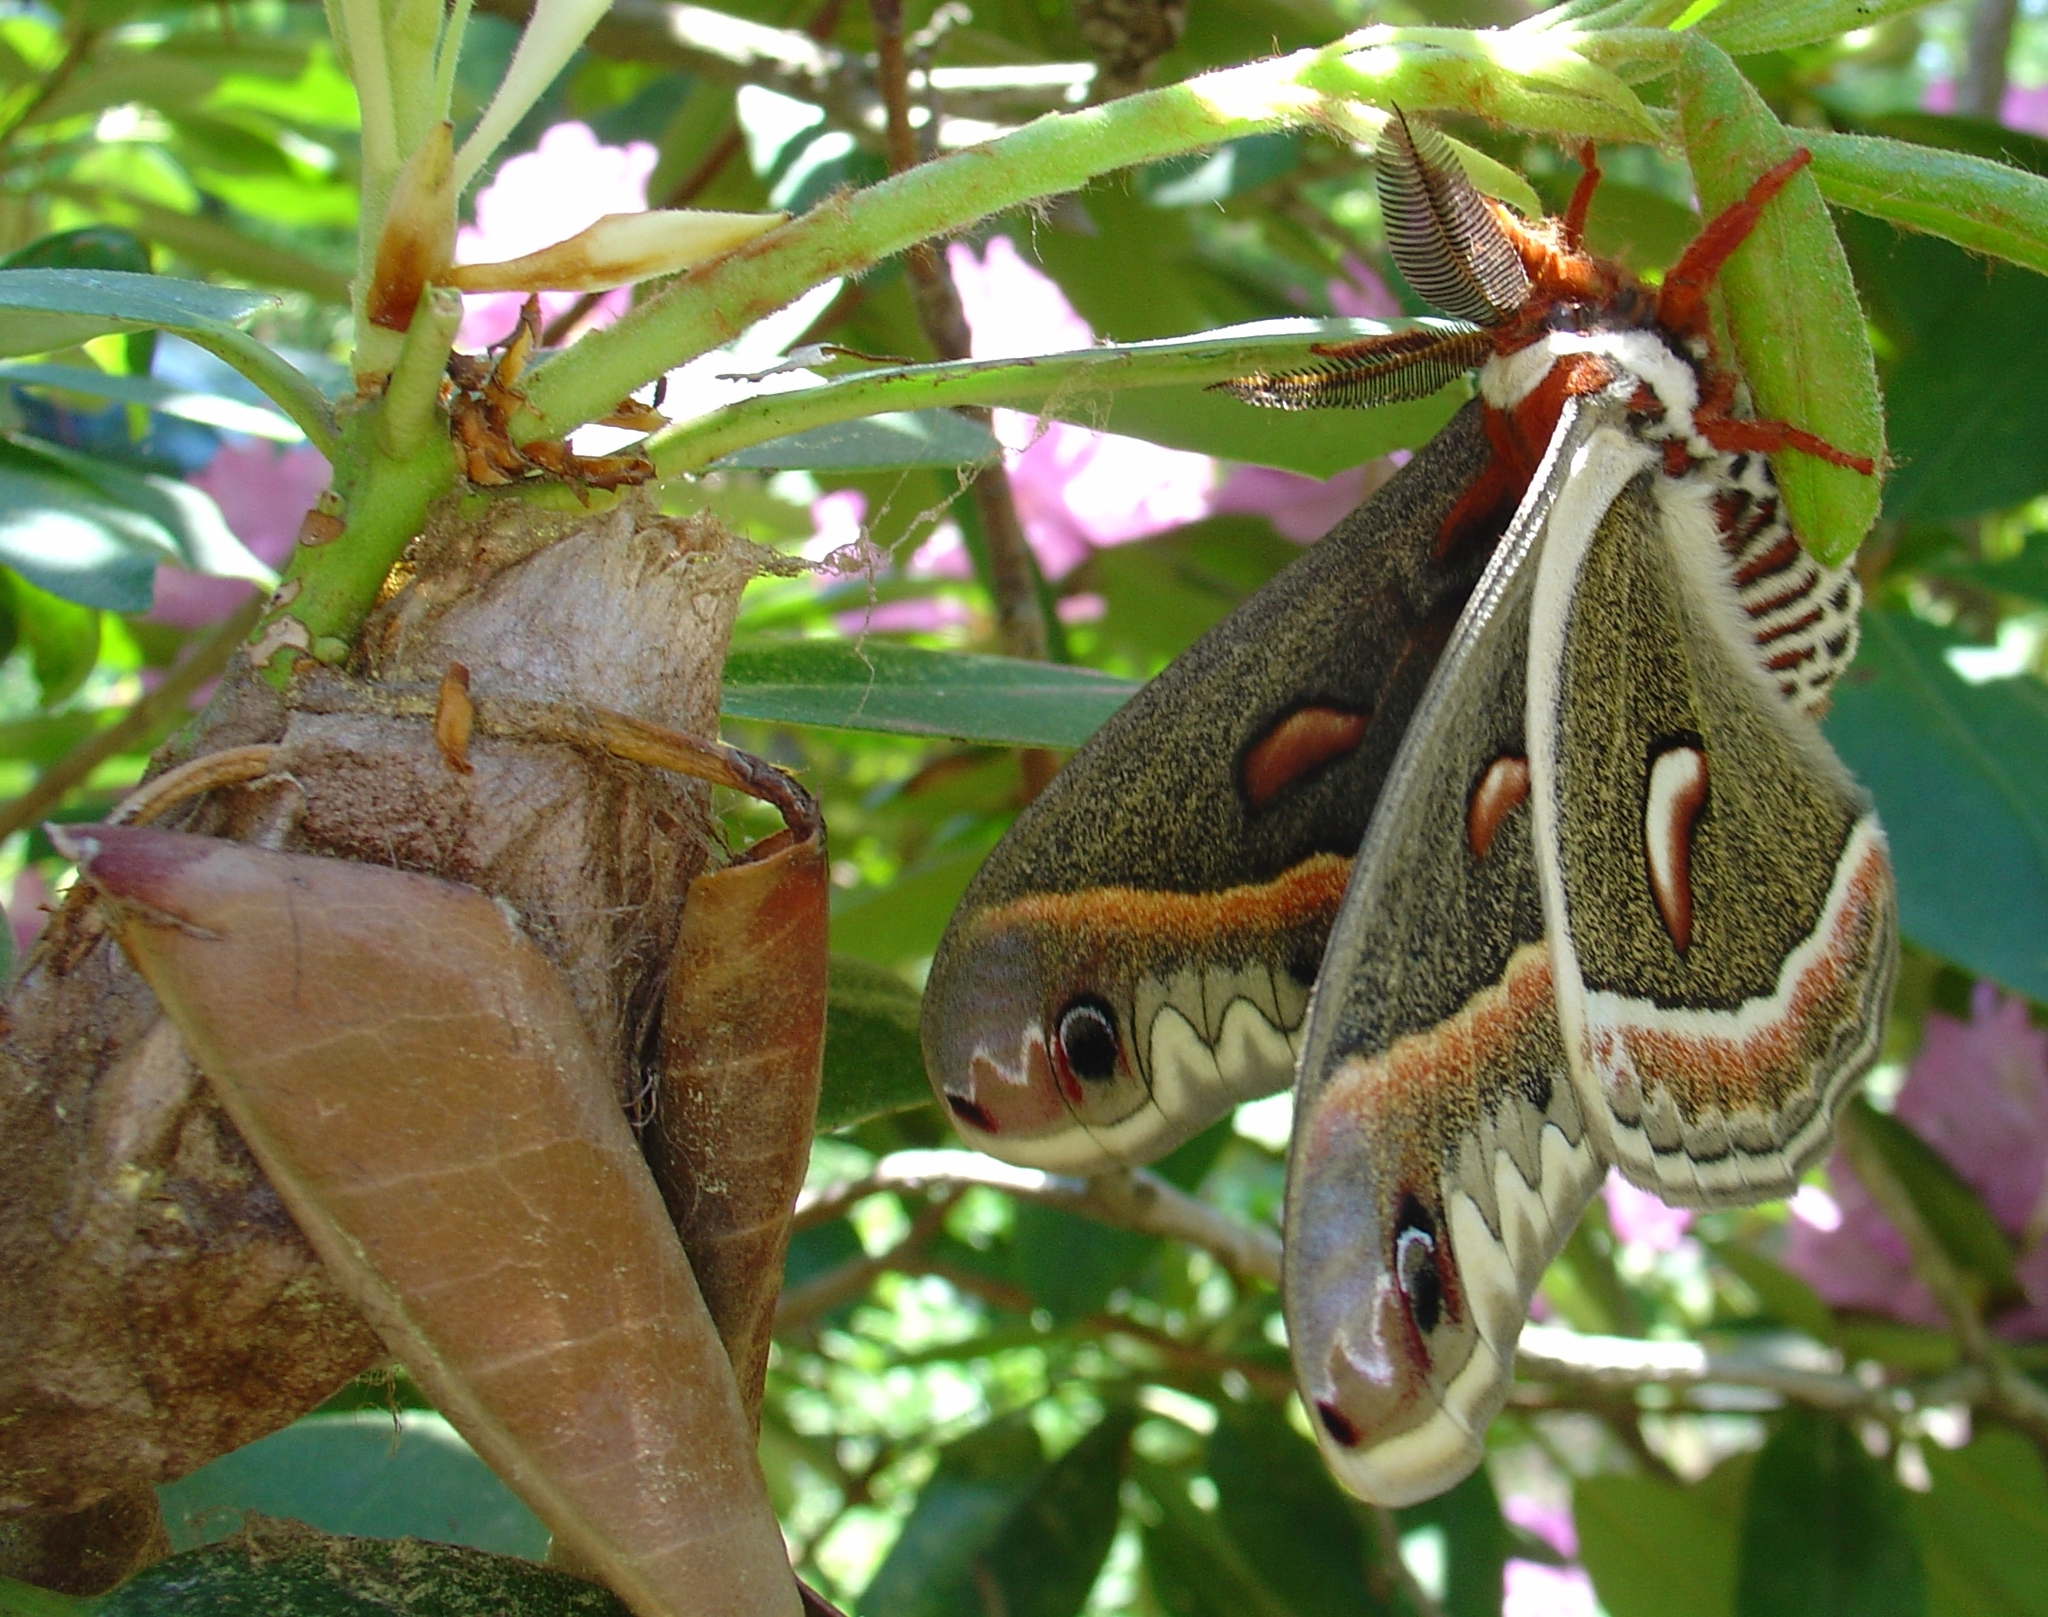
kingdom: Animalia
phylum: Arthropoda
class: Insecta
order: Lepidoptera
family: Saturniidae
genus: Hyalophora
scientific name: Hyalophora cecropia
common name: Cecropia silkmoth
